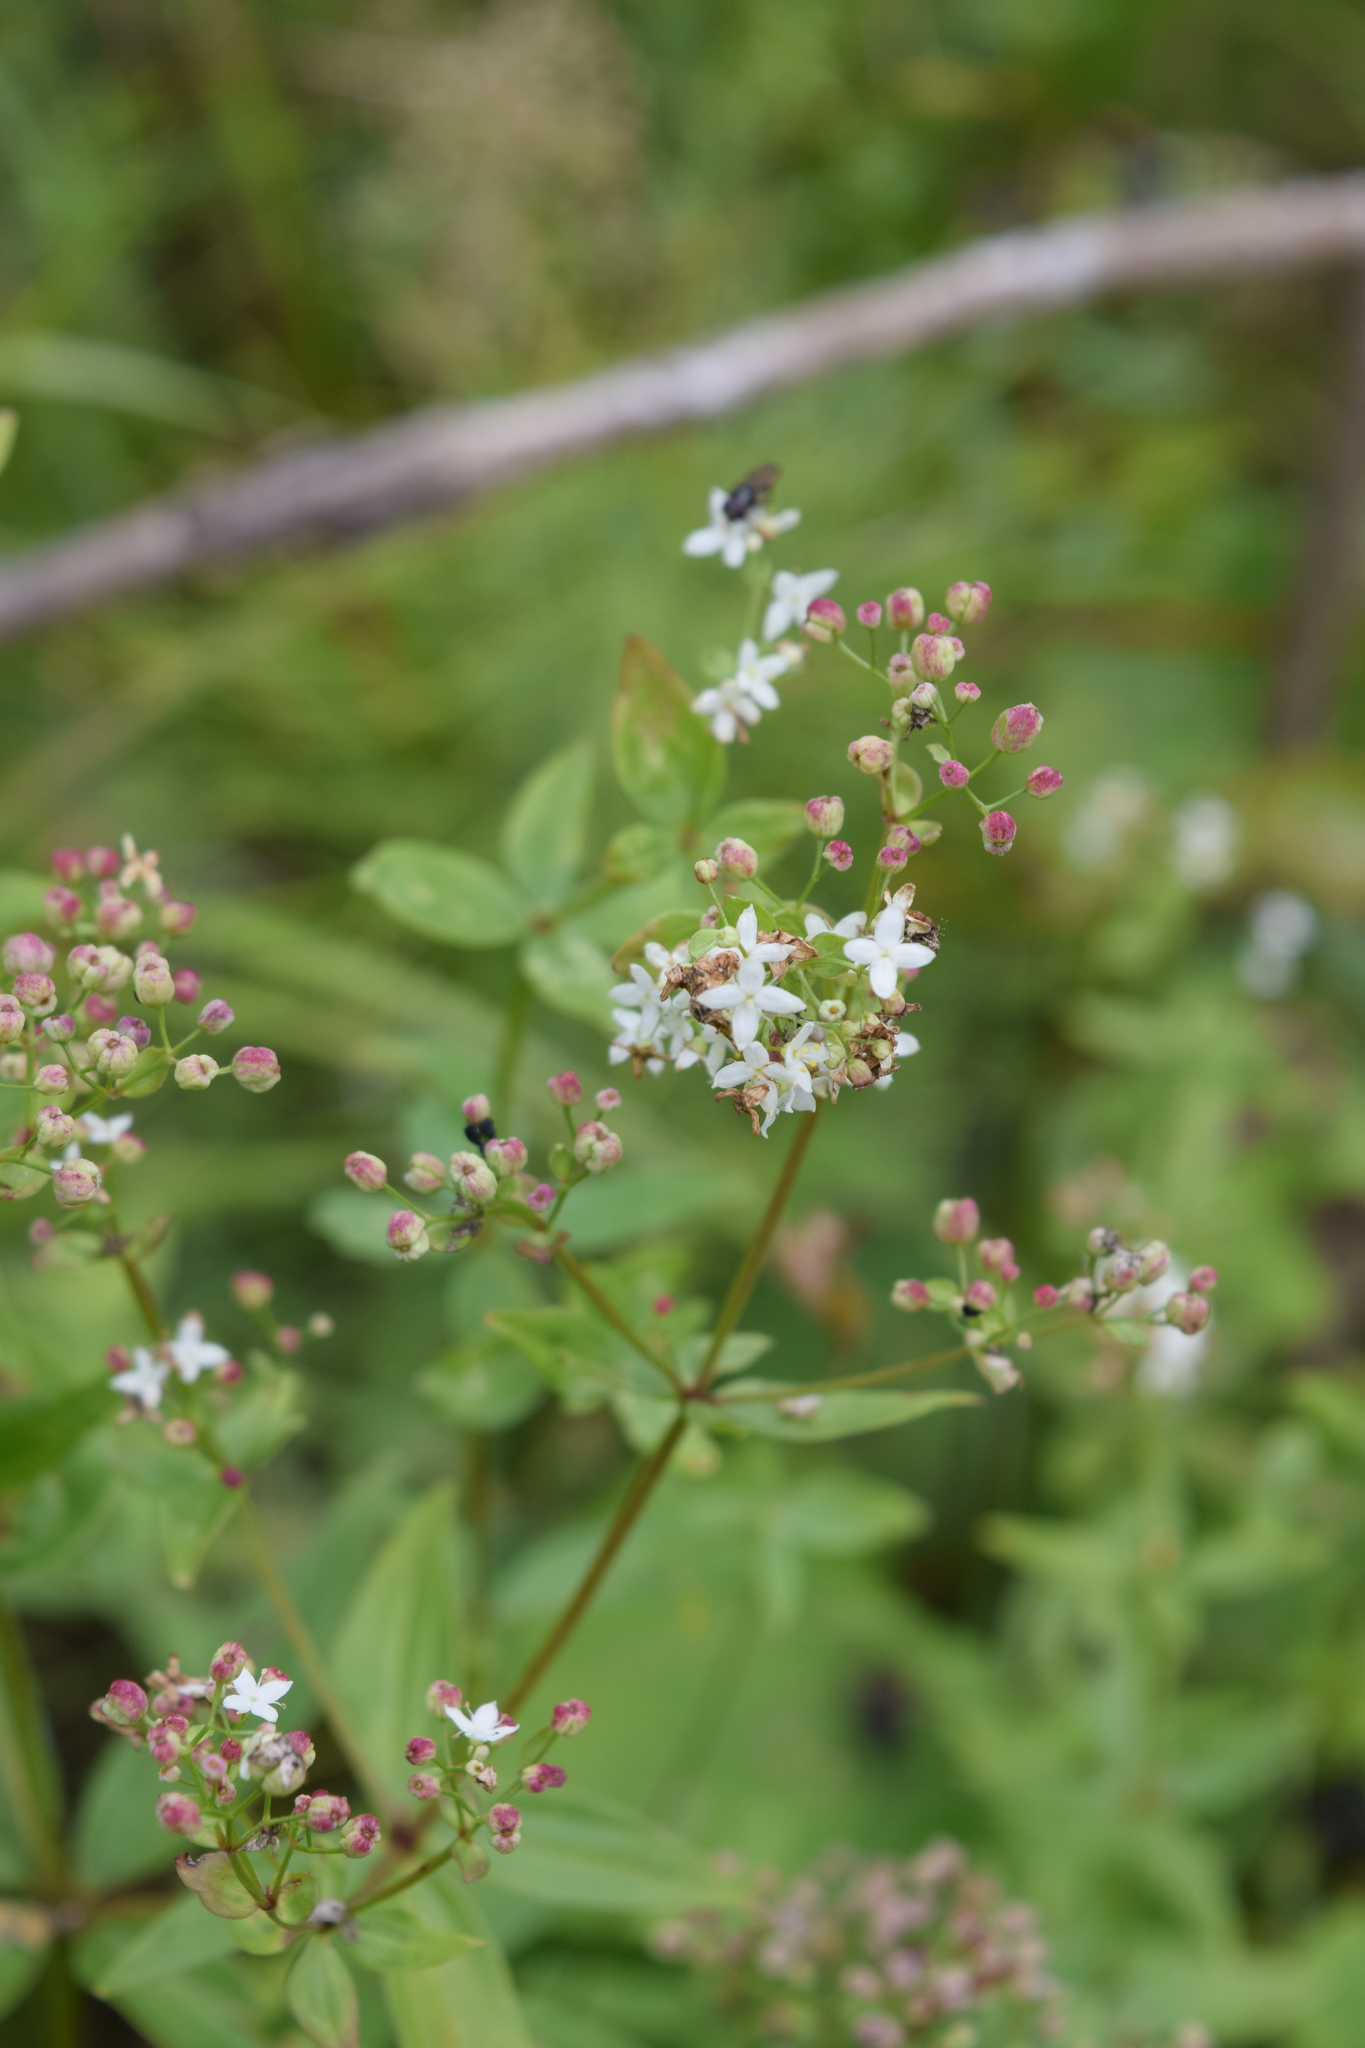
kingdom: Plantae
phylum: Tracheophyta
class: Magnoliopsida
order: Gentianales
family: Rubiaceae
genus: Galium
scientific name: Galium boreale
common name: Northern bedstraw
